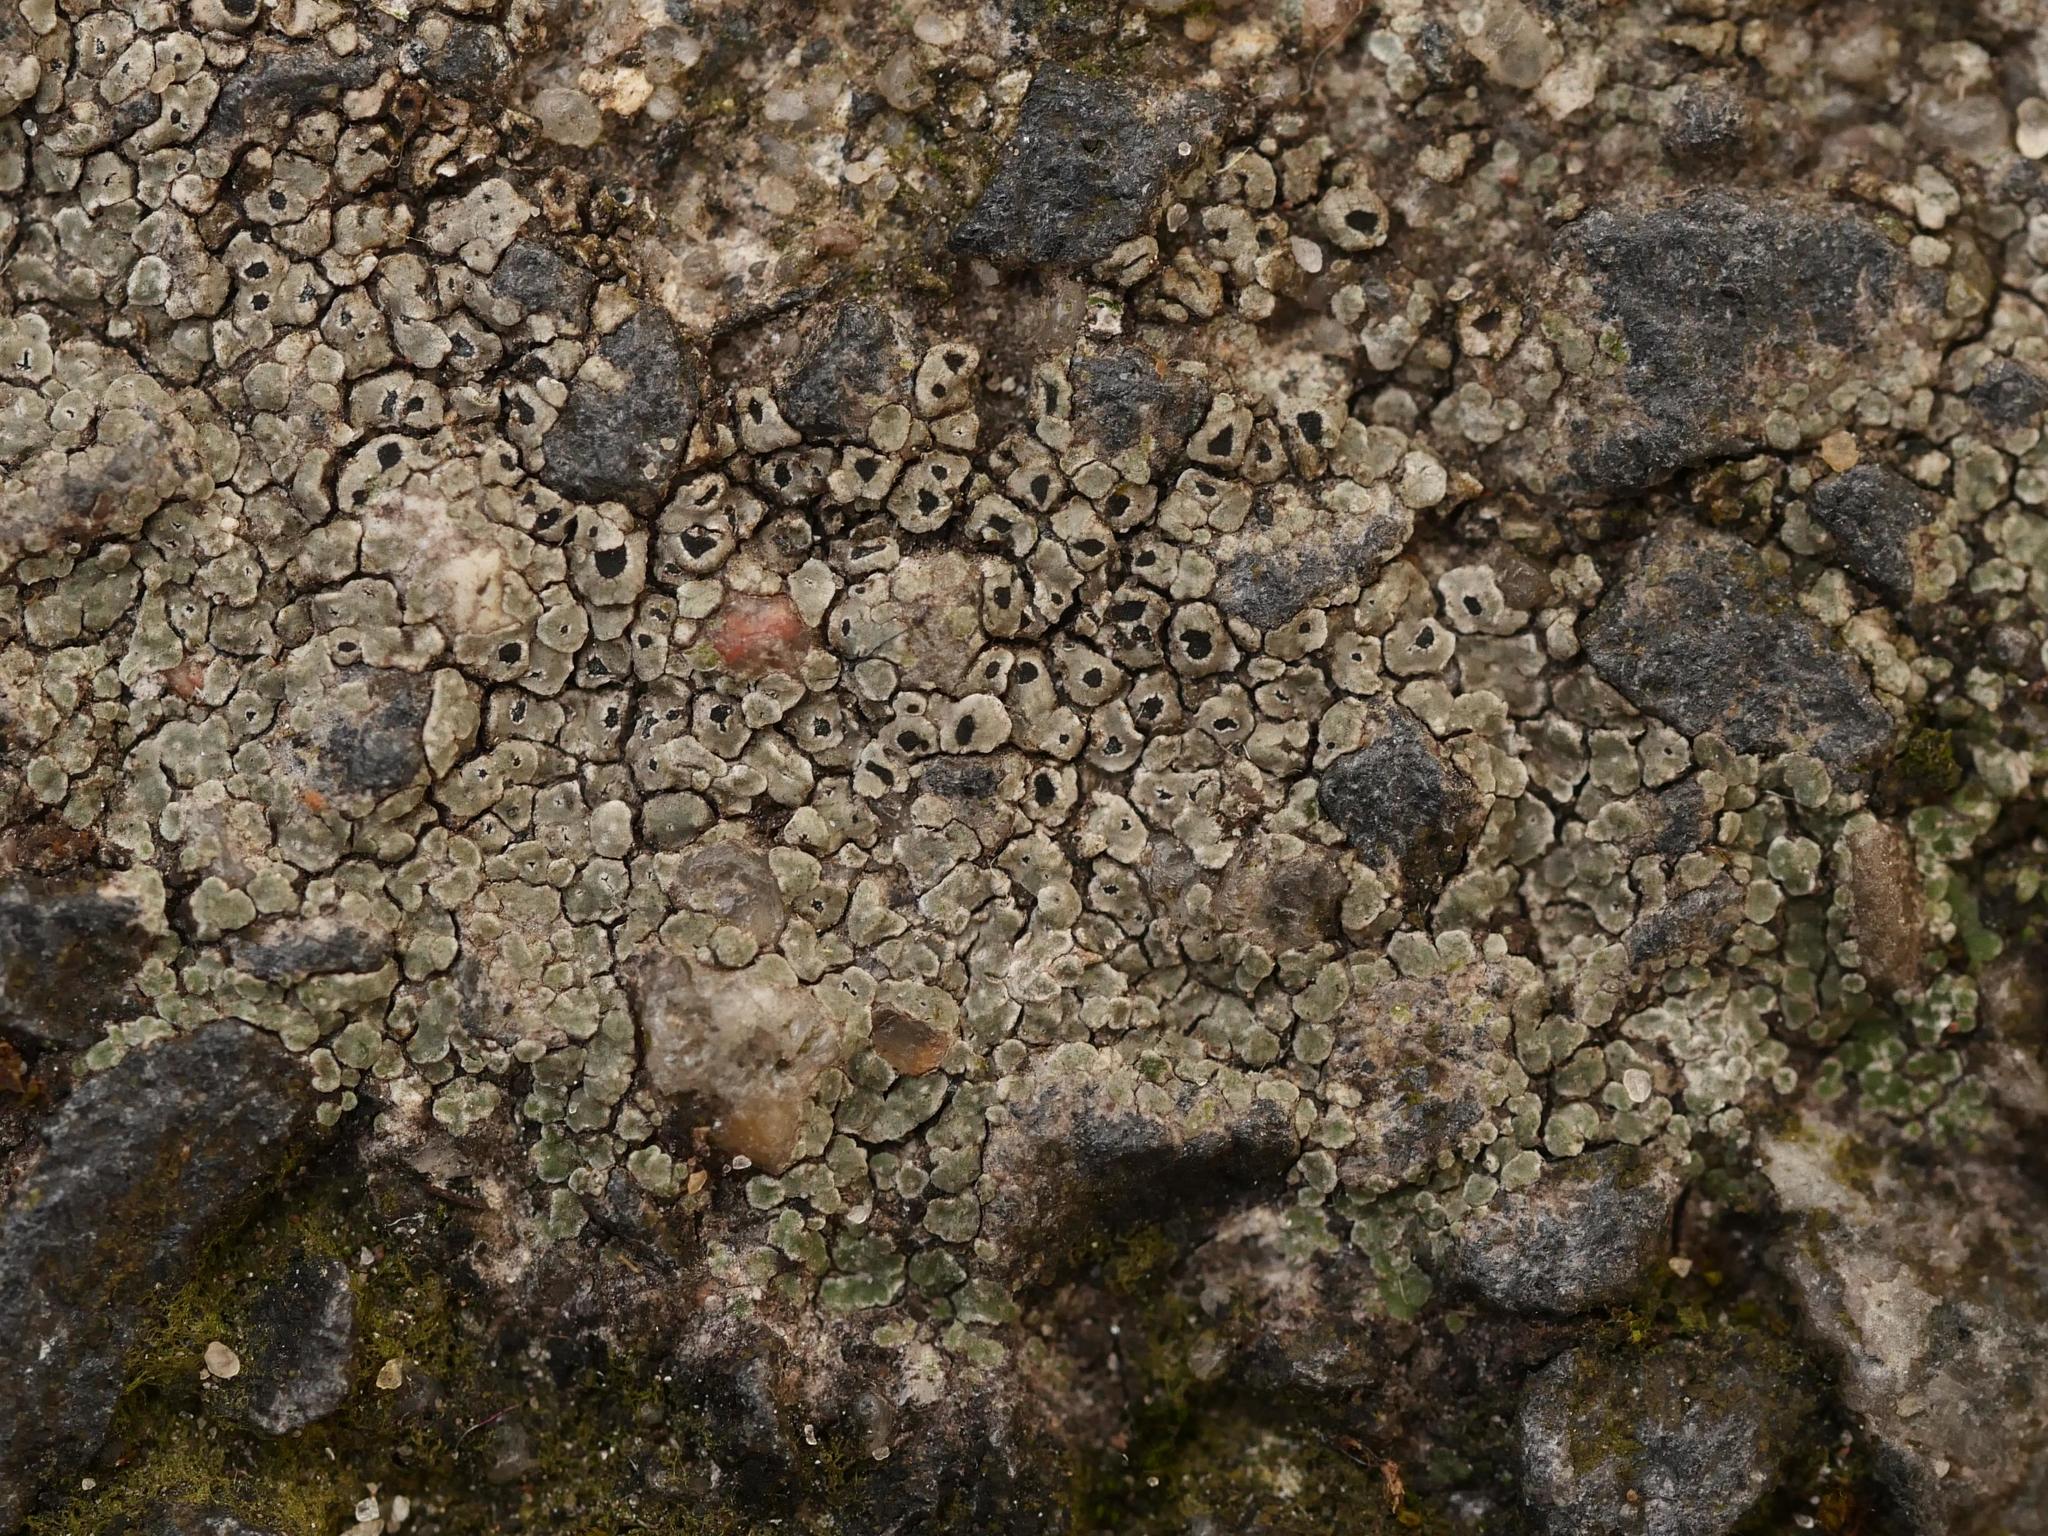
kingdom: Fungi
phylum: Ascomycota
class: Lecanoromycetes
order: Pertusariales
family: Megasporaceae
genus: Circinaria
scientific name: Circinaria contorta
